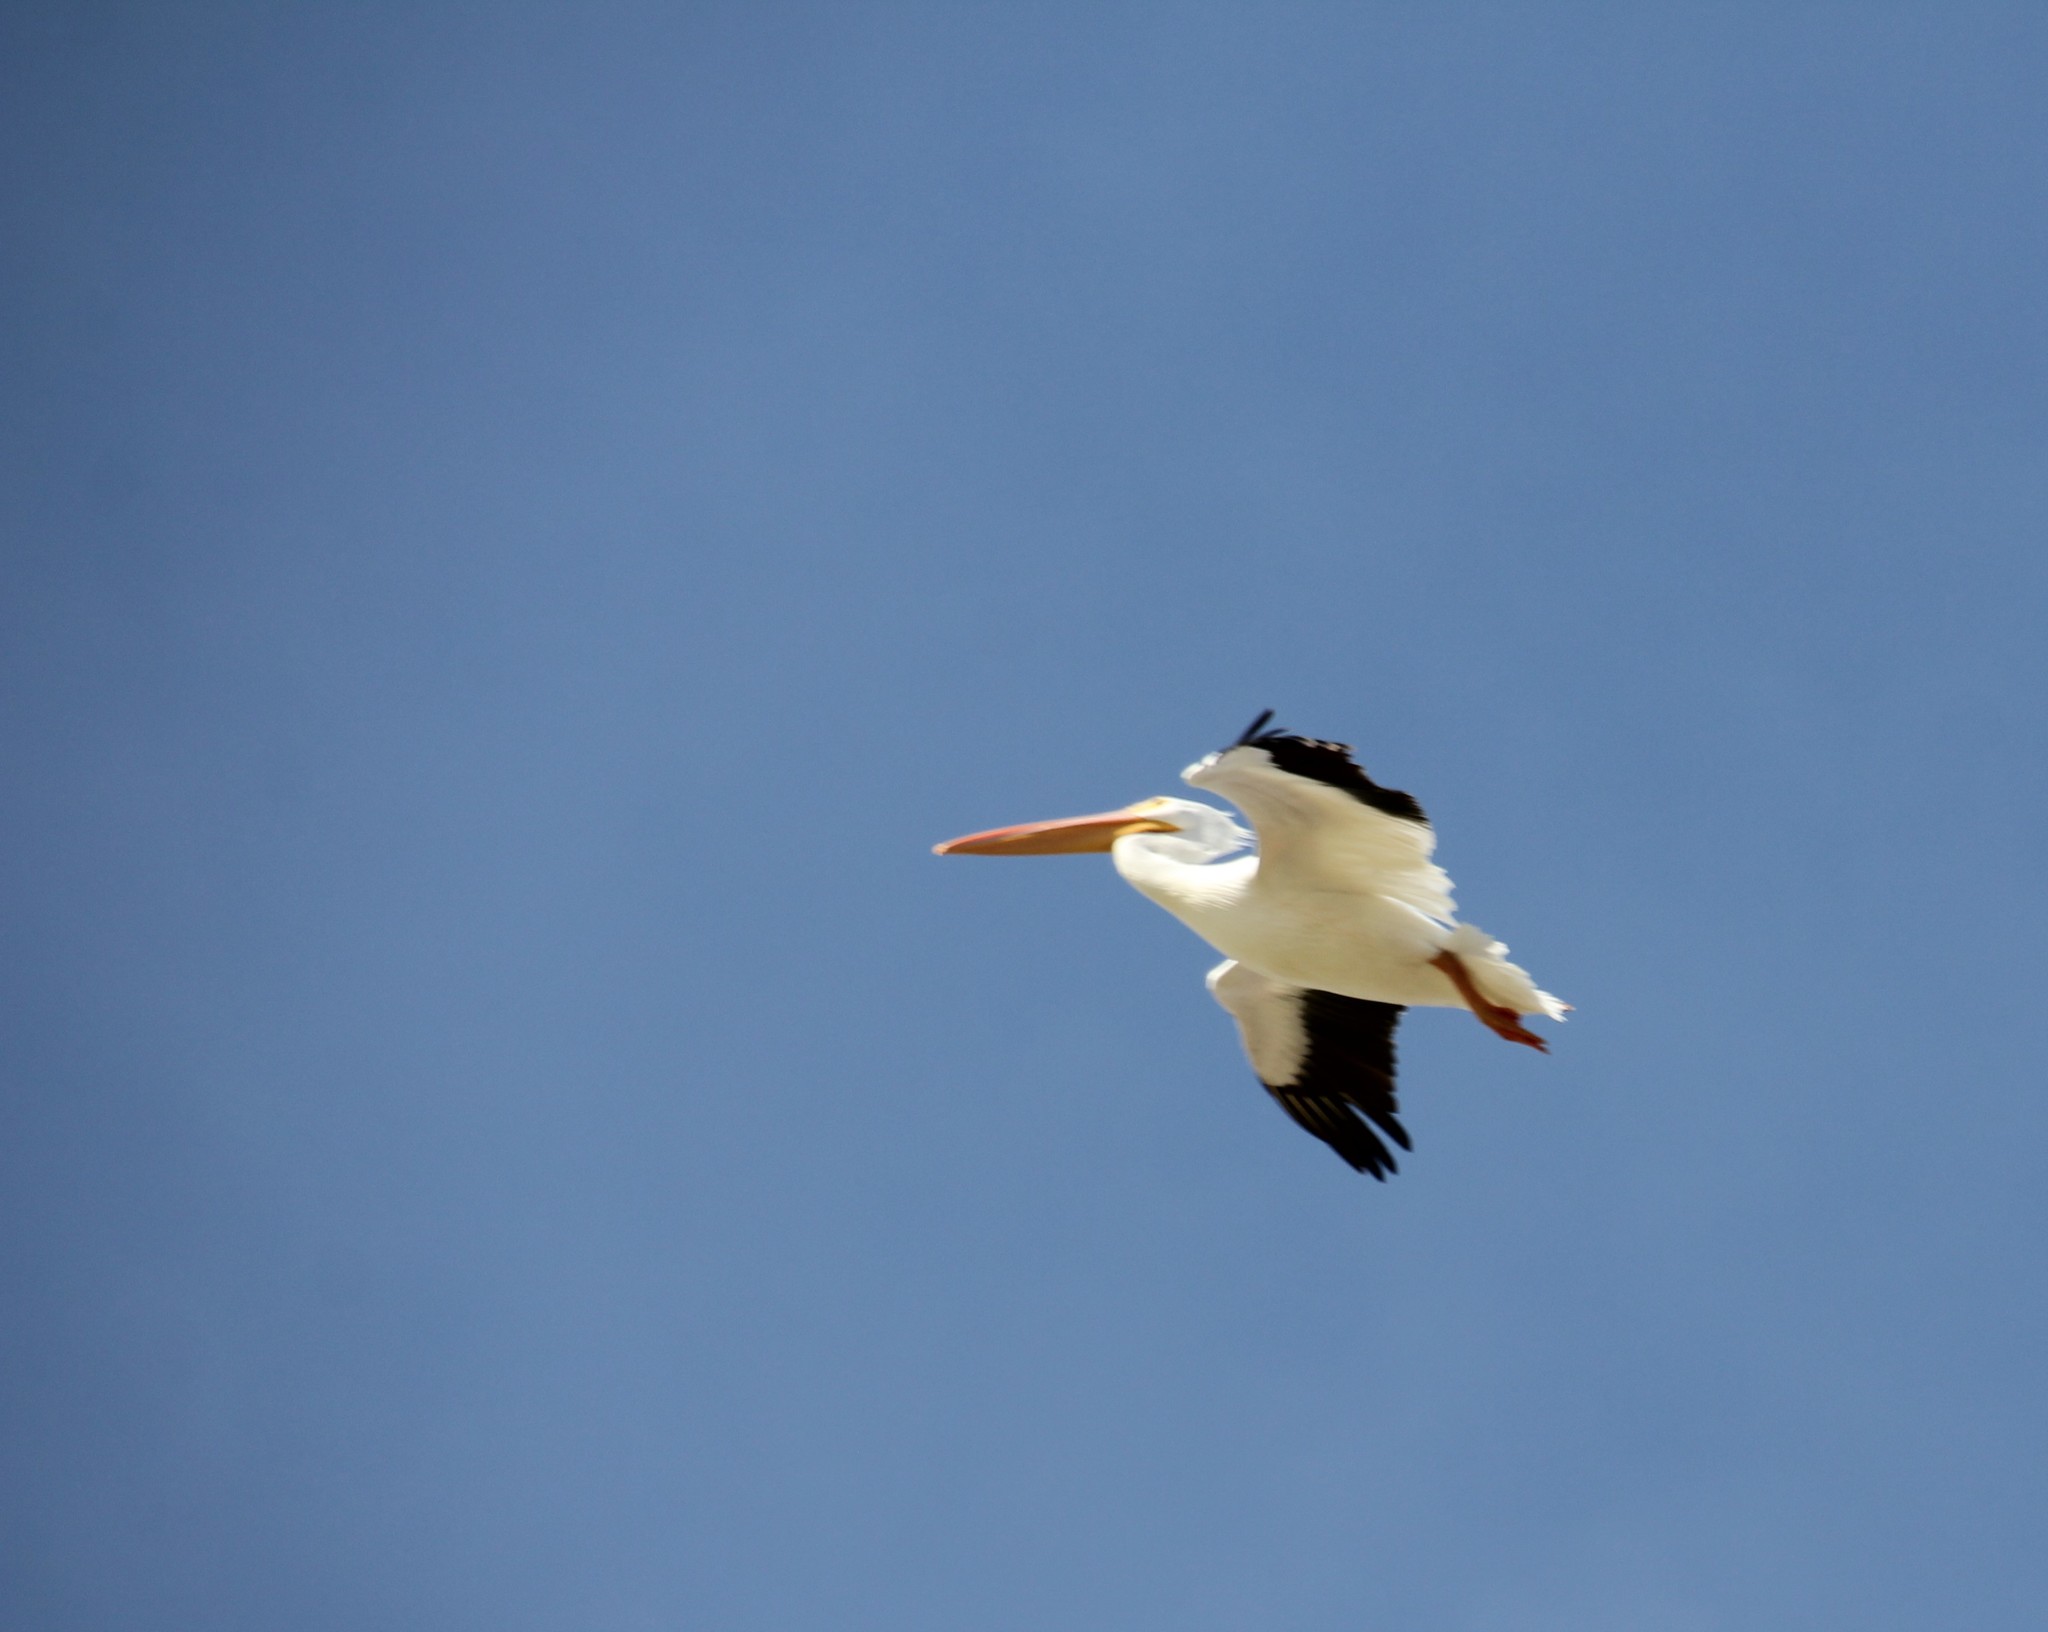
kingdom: Animalia
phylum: Chordata
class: Aves
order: Pelecaniformes
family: Pelecanidae
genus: Pelecanus
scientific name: Pelecanus erythrorhynchos
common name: American white pelican
